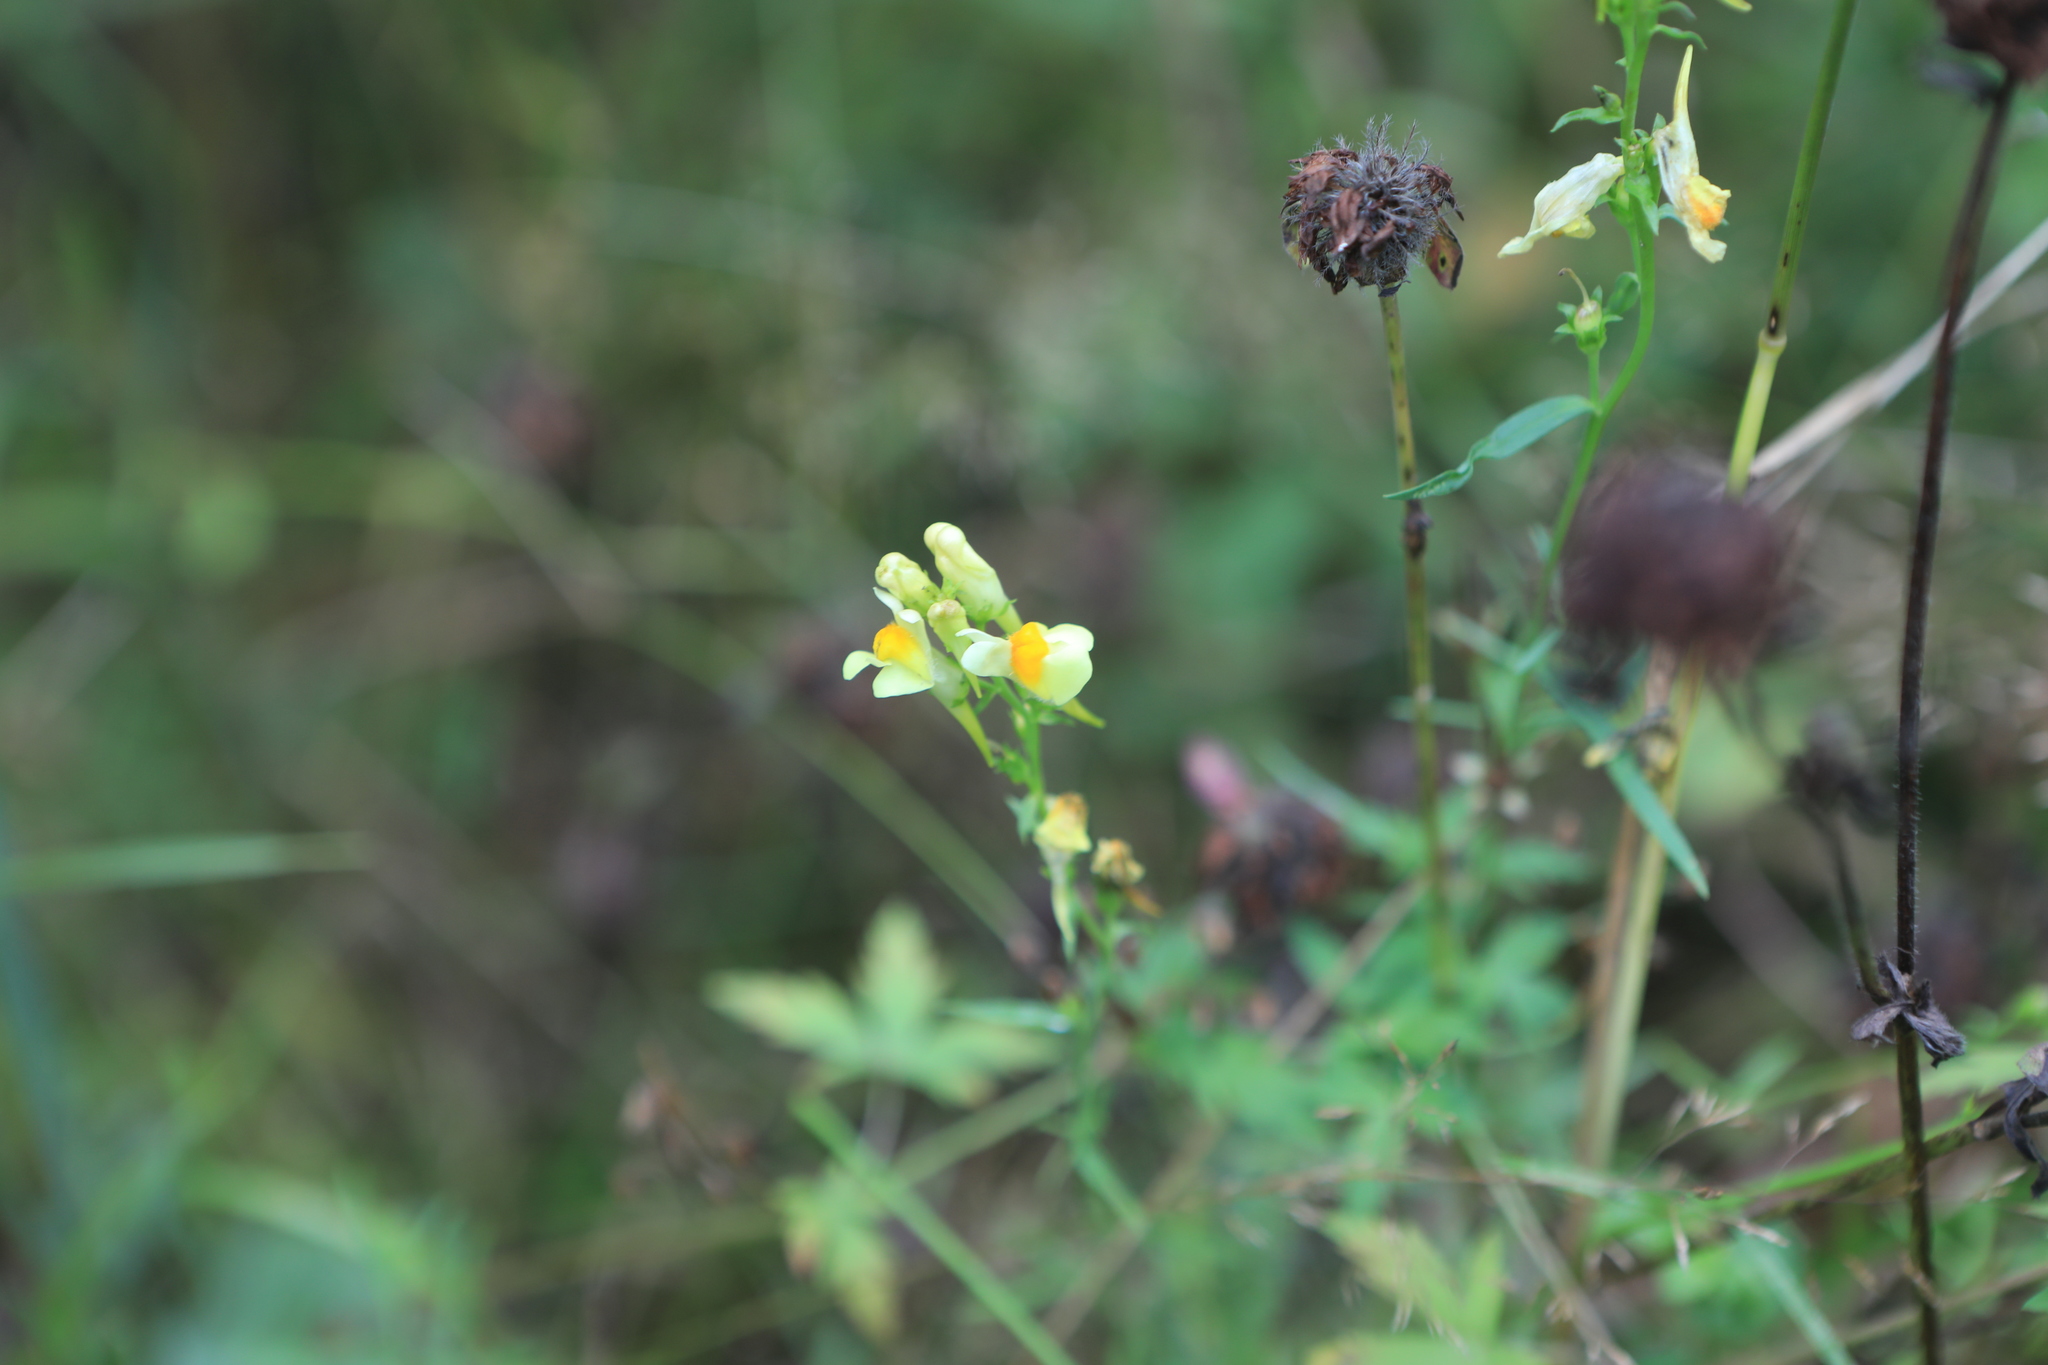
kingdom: Plantae
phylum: Tracheophyta
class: Magnoliopsida
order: Lamiales
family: Plantaginaceae
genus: Linaria
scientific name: Linaria vulgaris
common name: Butter and eggs
